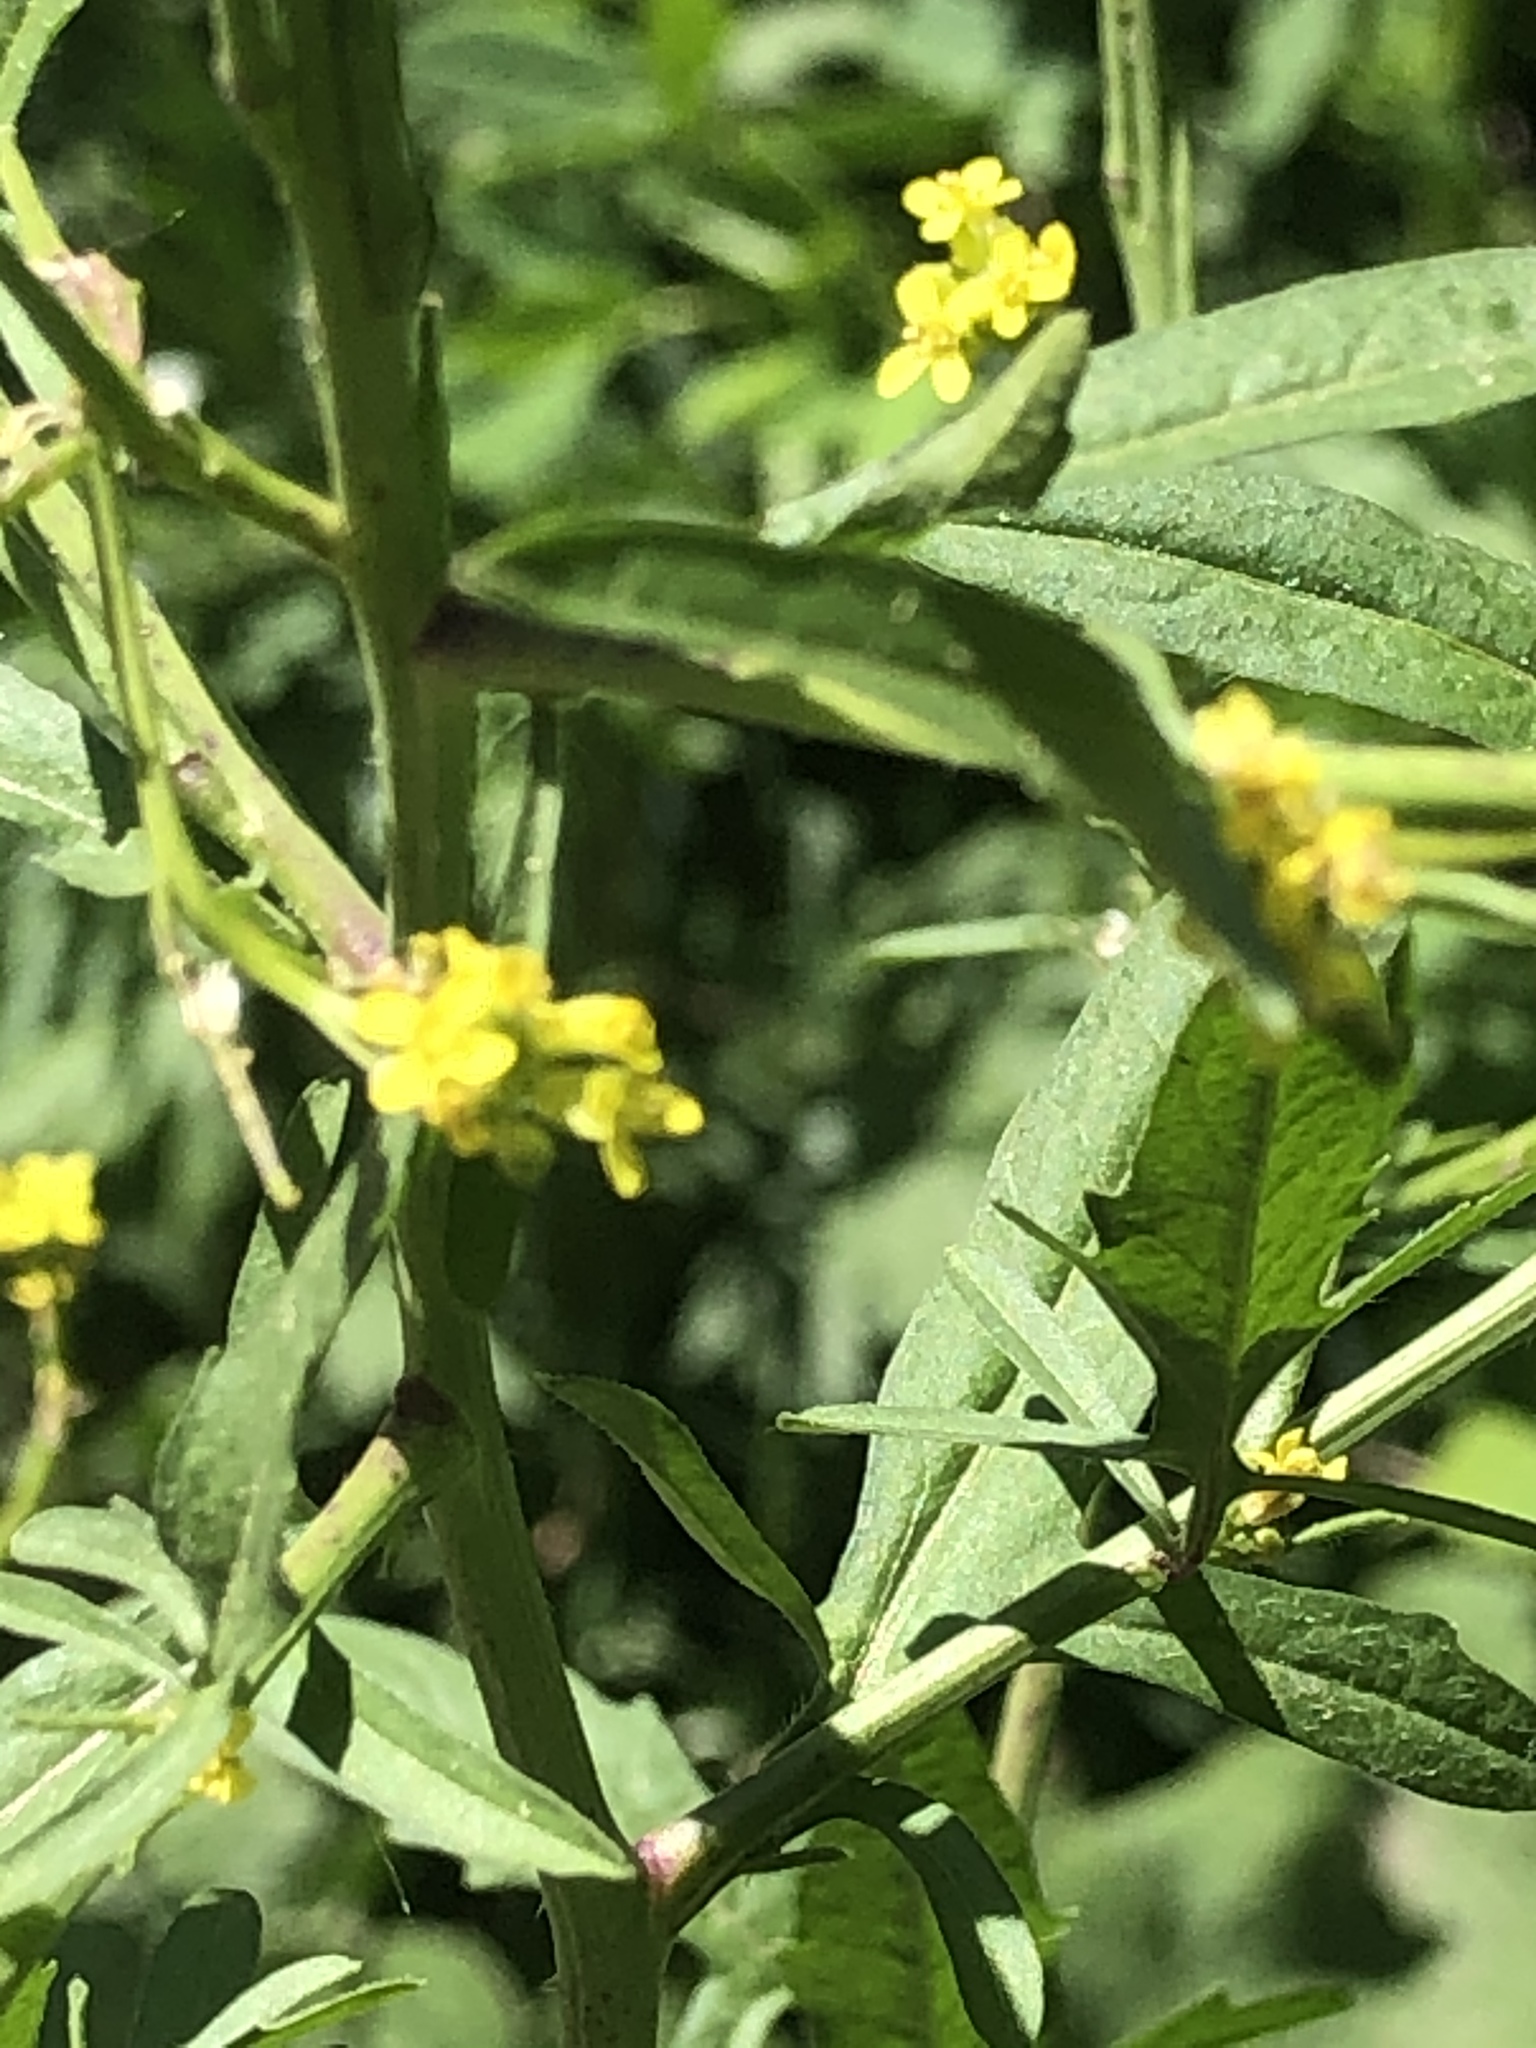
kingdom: Plantae
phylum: Tracheophyta
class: Magnoliopsida
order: Brassicales
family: Brassicaceae
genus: Sisymbrium
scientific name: Sisymbrium officinale
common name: Hedge mustard
